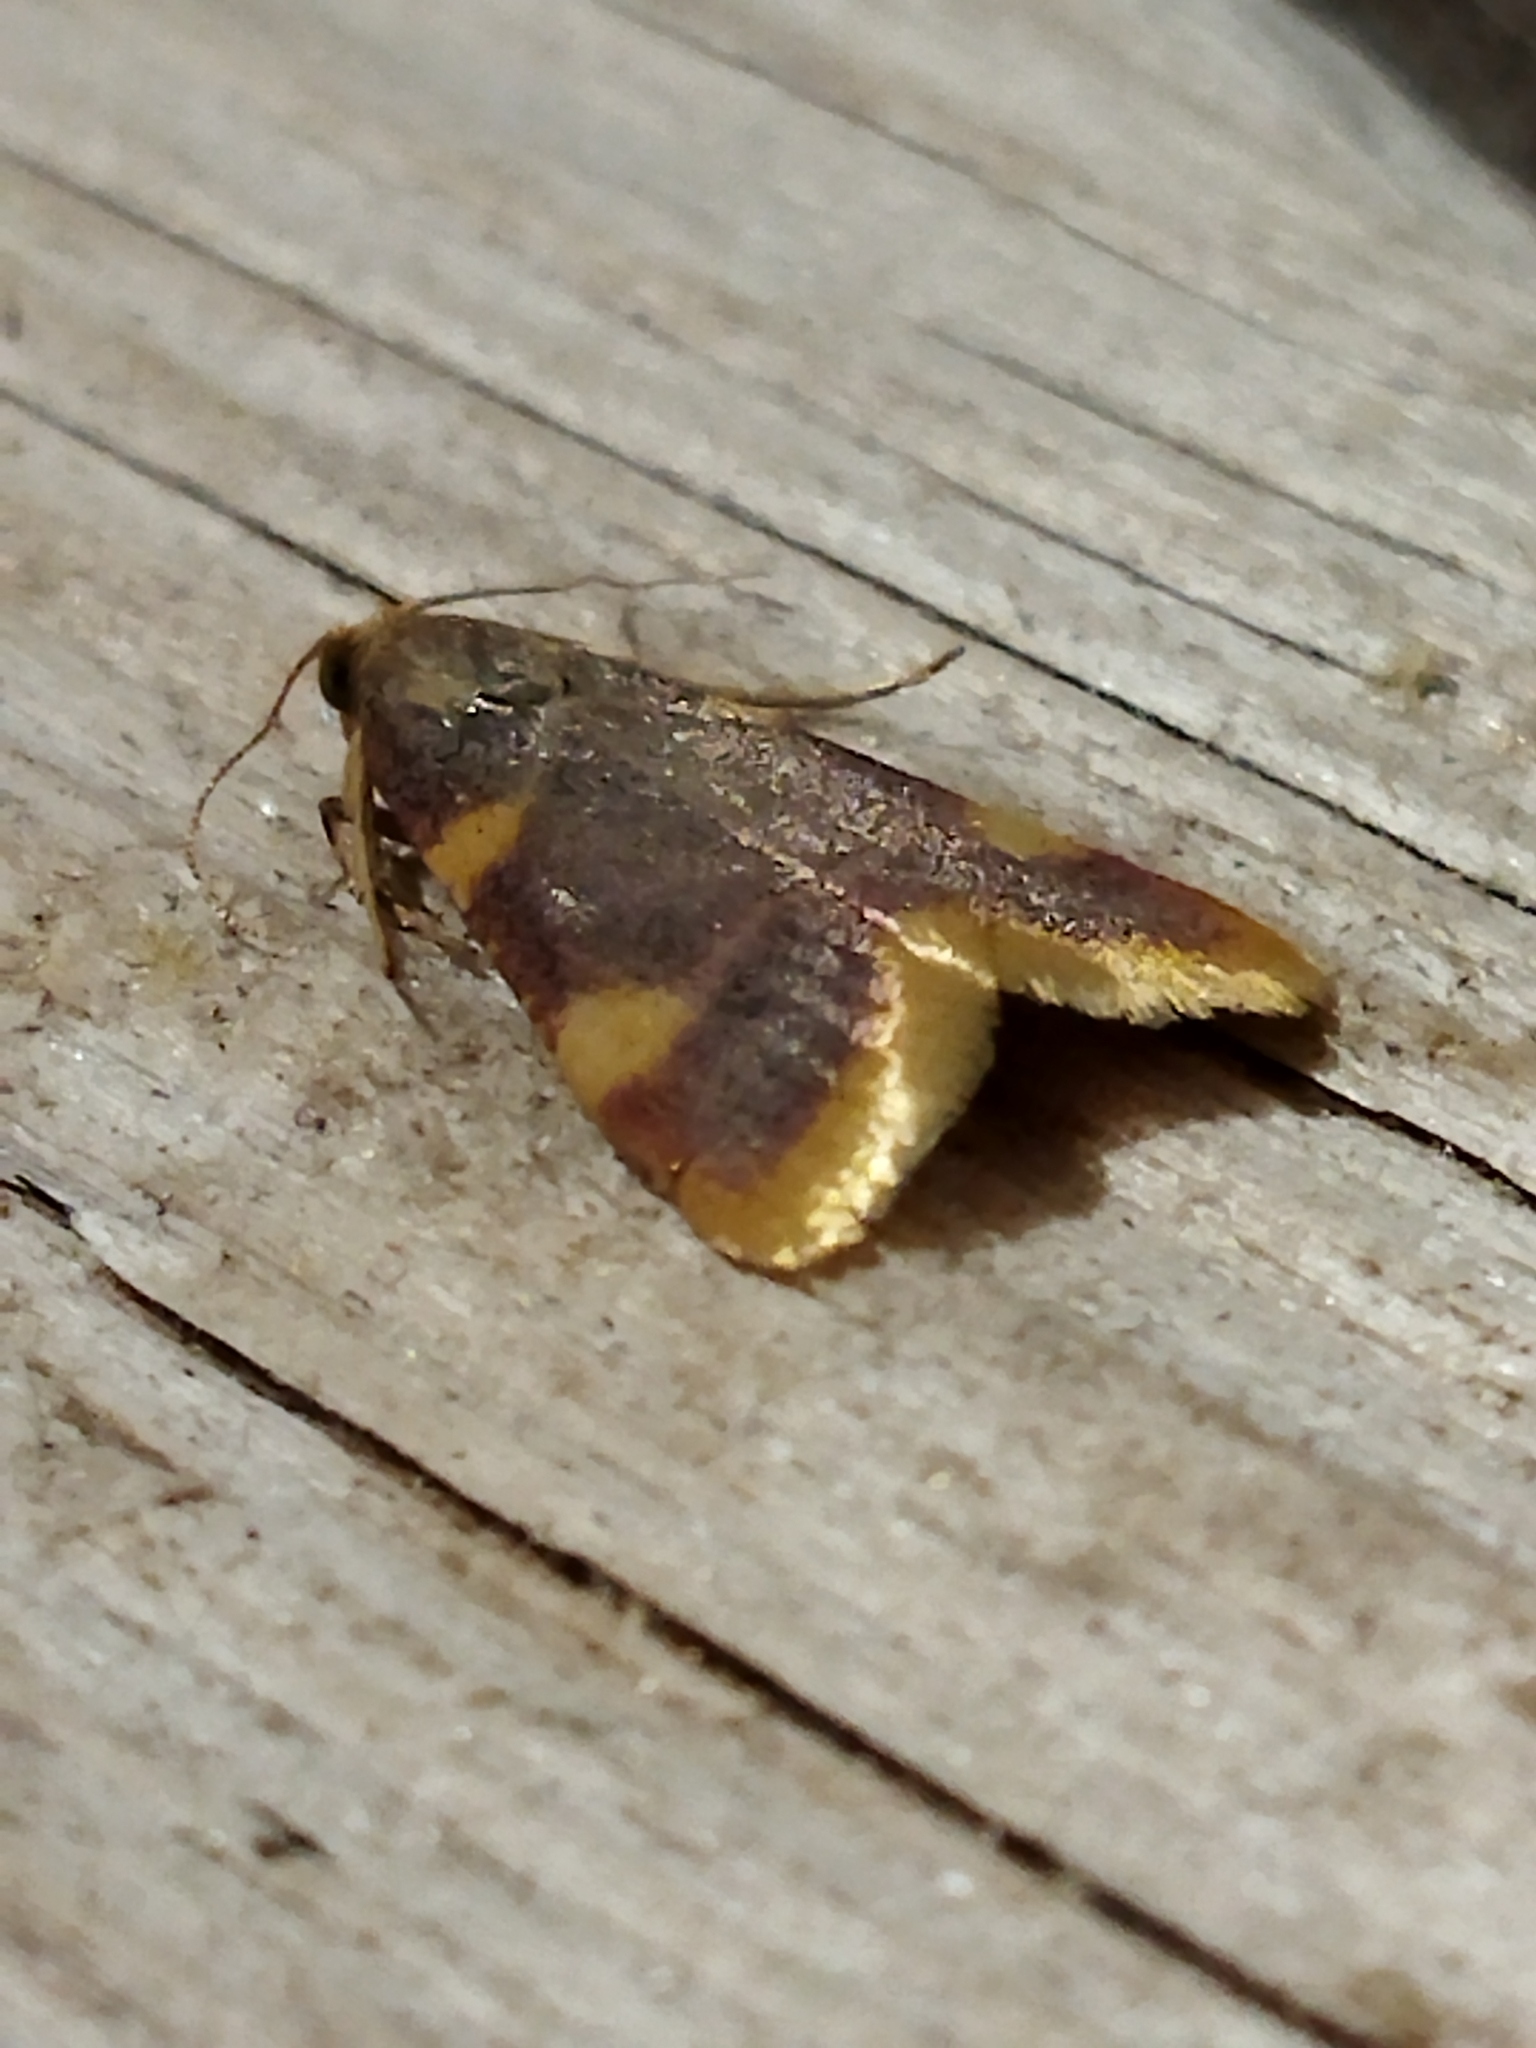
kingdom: Animalia
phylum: Arthropoda
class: Insecta
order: Lepidoptera
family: Pyralidae
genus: Hypsopygia
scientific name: Hypsopygia costalis
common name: Gold triangle
